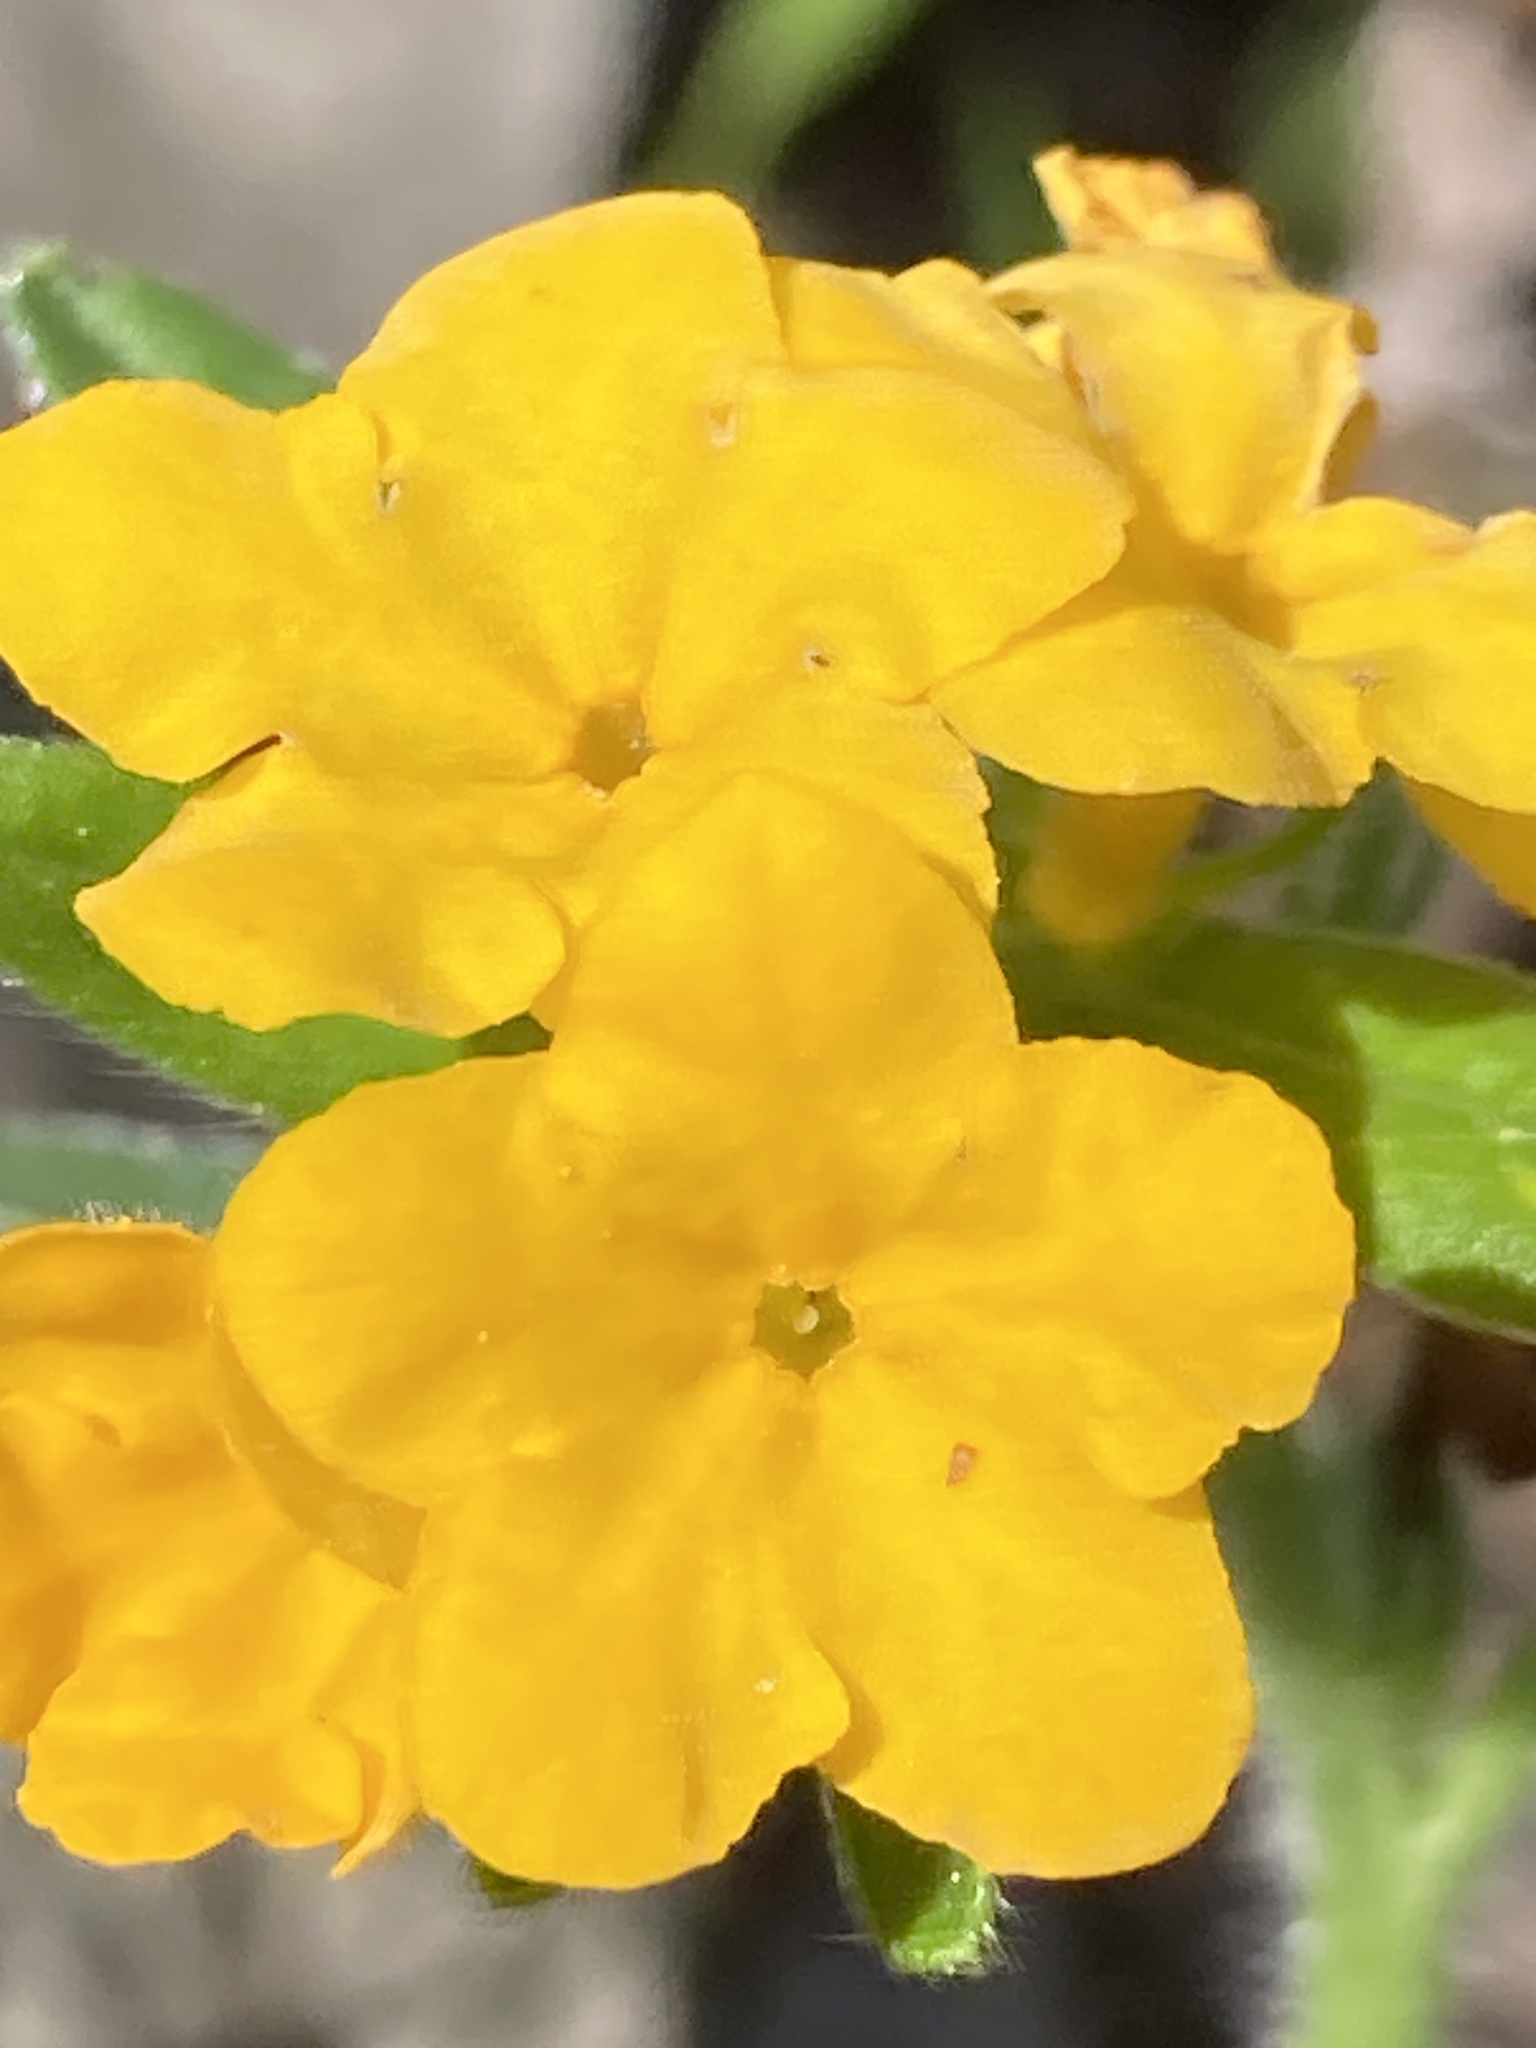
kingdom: Plantae
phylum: Tracheophyta
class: Magnoliopsida
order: Boraginales
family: Boraginaceae
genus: Lithospermum
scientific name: Lithospermum canescens
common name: Hoary puccoon
